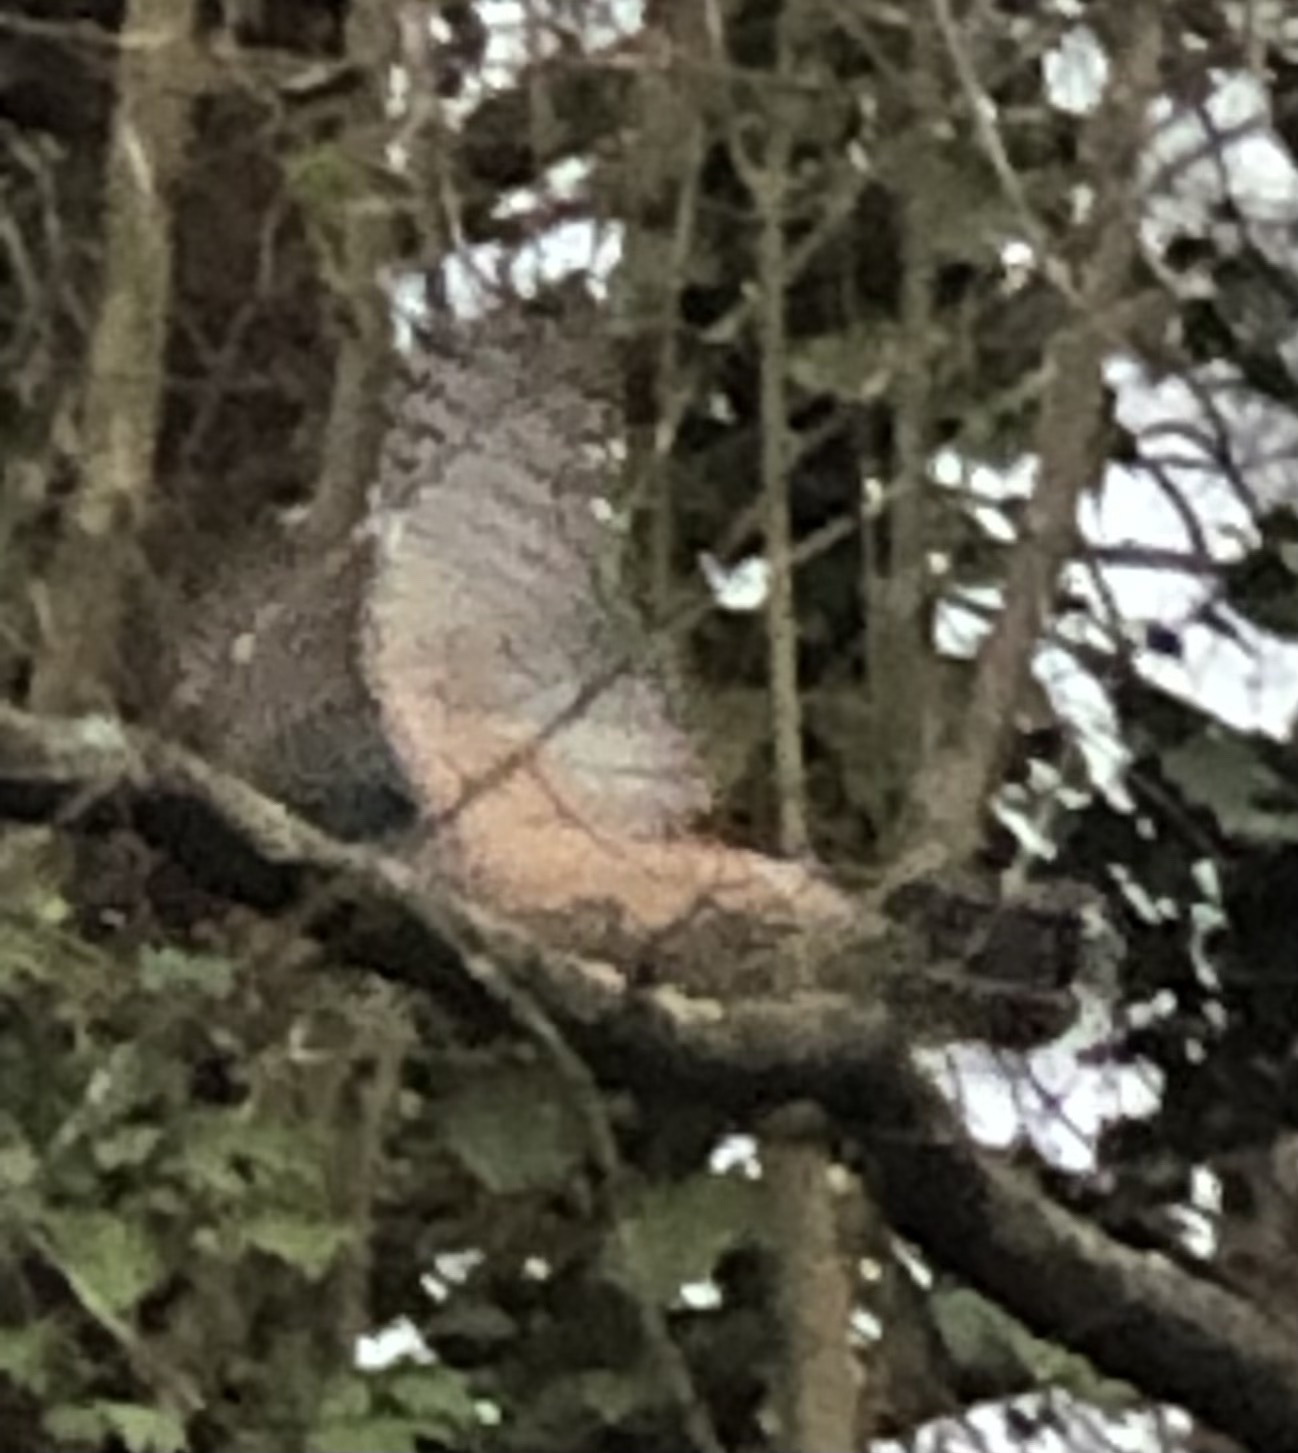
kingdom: Animalia
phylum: Chordata
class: Aves
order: Accipitriformes
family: Accipitridae
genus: Accipiter
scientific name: Accipiter cooperii
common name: Cooper's hawk
